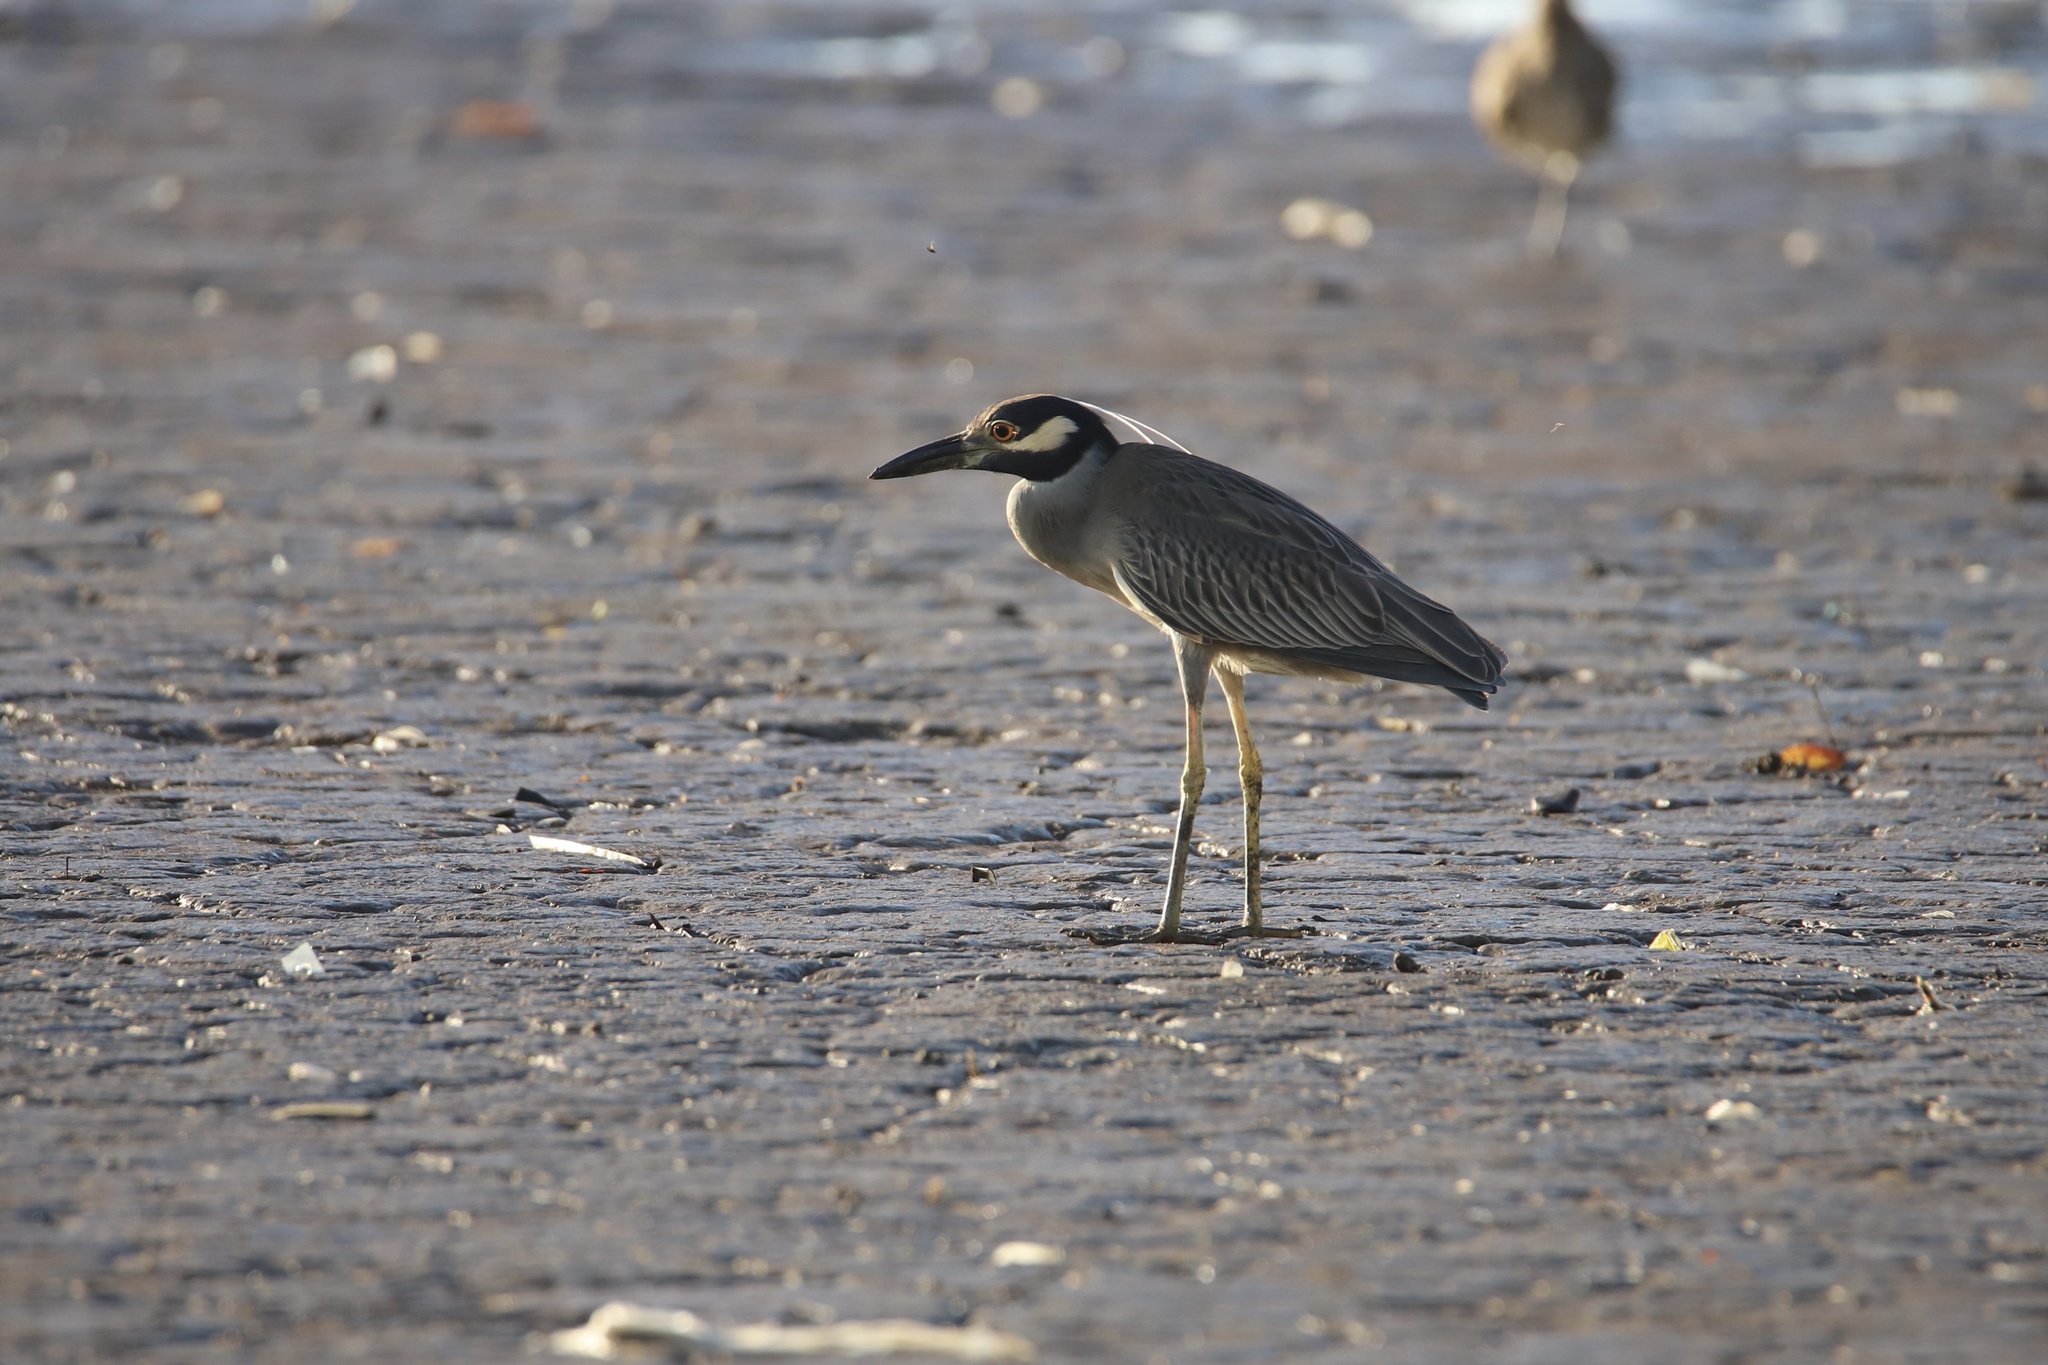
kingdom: Animalia
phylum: Chordata
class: Aves
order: Pelecaniformes
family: Ardeidae
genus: Nyctanassa
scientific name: Nyctanassa violacea
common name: Yellow-crowned night heron
